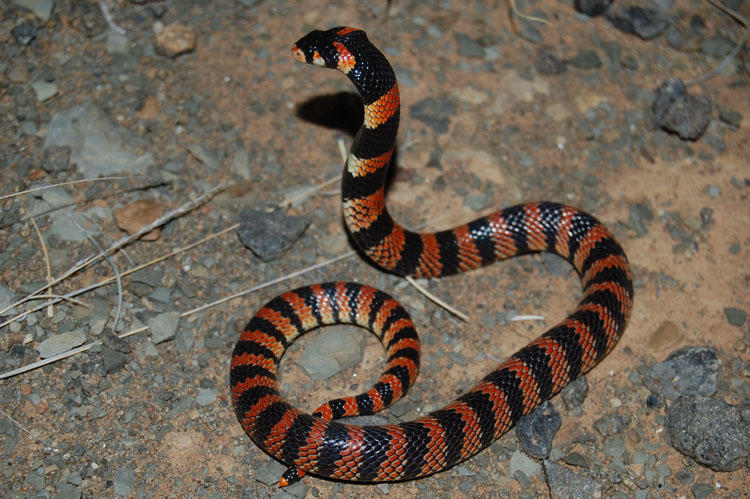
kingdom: Animalia
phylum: Chordata
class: Squamata
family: Elapidae
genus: Aspidelaps
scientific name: Aspidelaps lubricus
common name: Coral shield cobra
